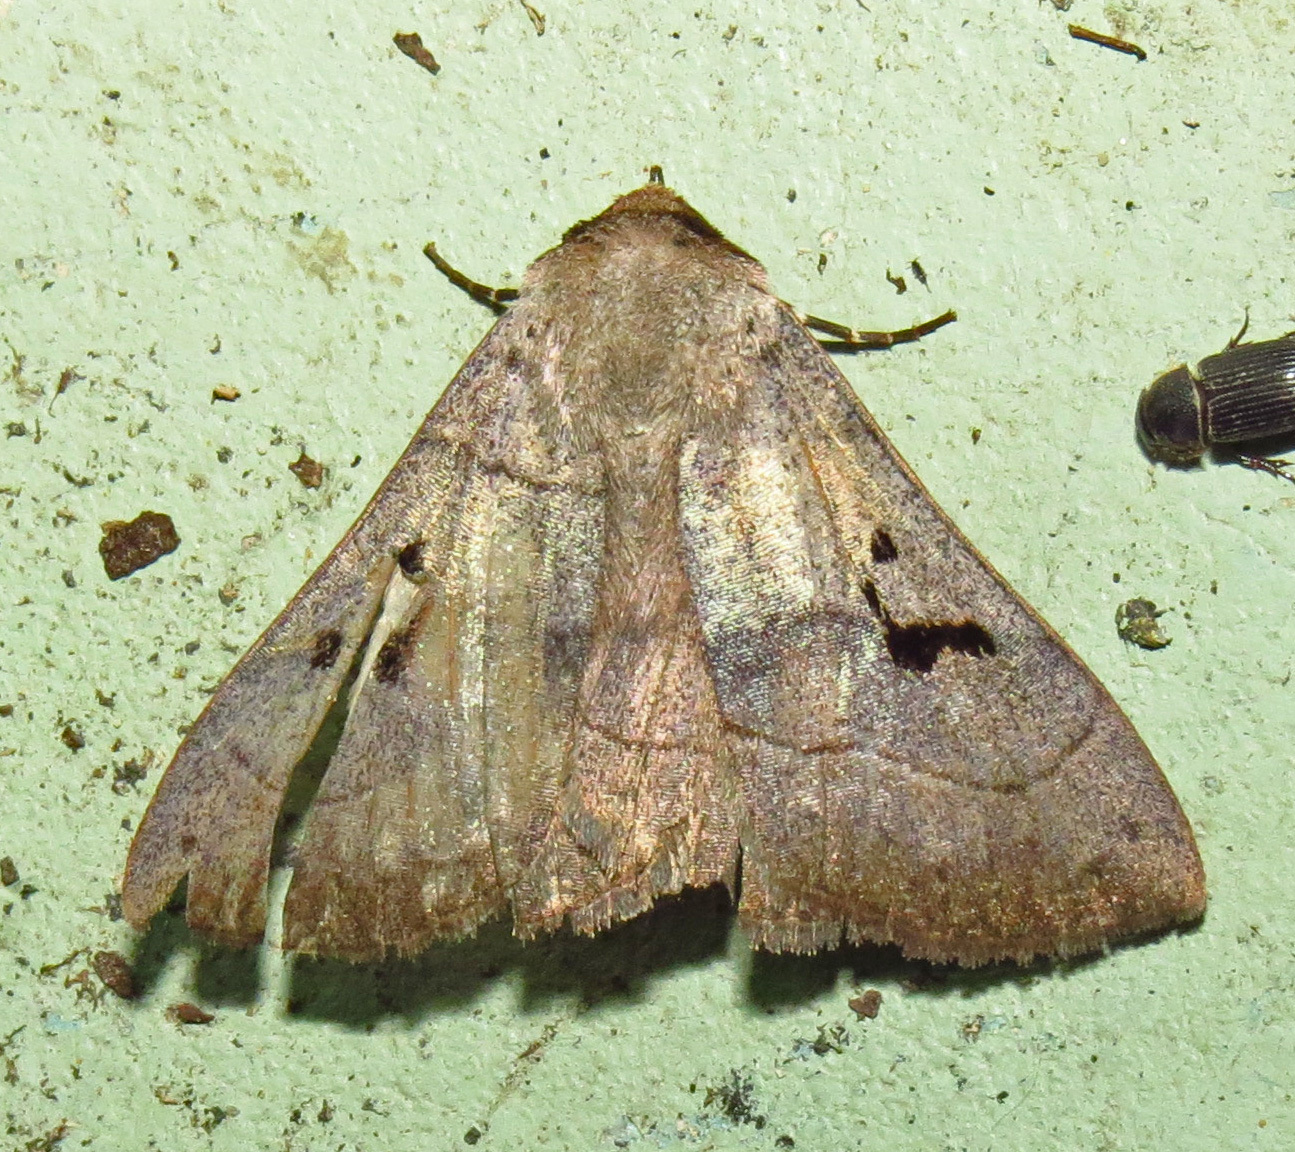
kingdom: Animalia
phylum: Arthropoda
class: Insecta
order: Lepidoptera
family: Erebidae
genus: Panopoda
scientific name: Panopoda carneicosta
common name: Brown panopoda moth
